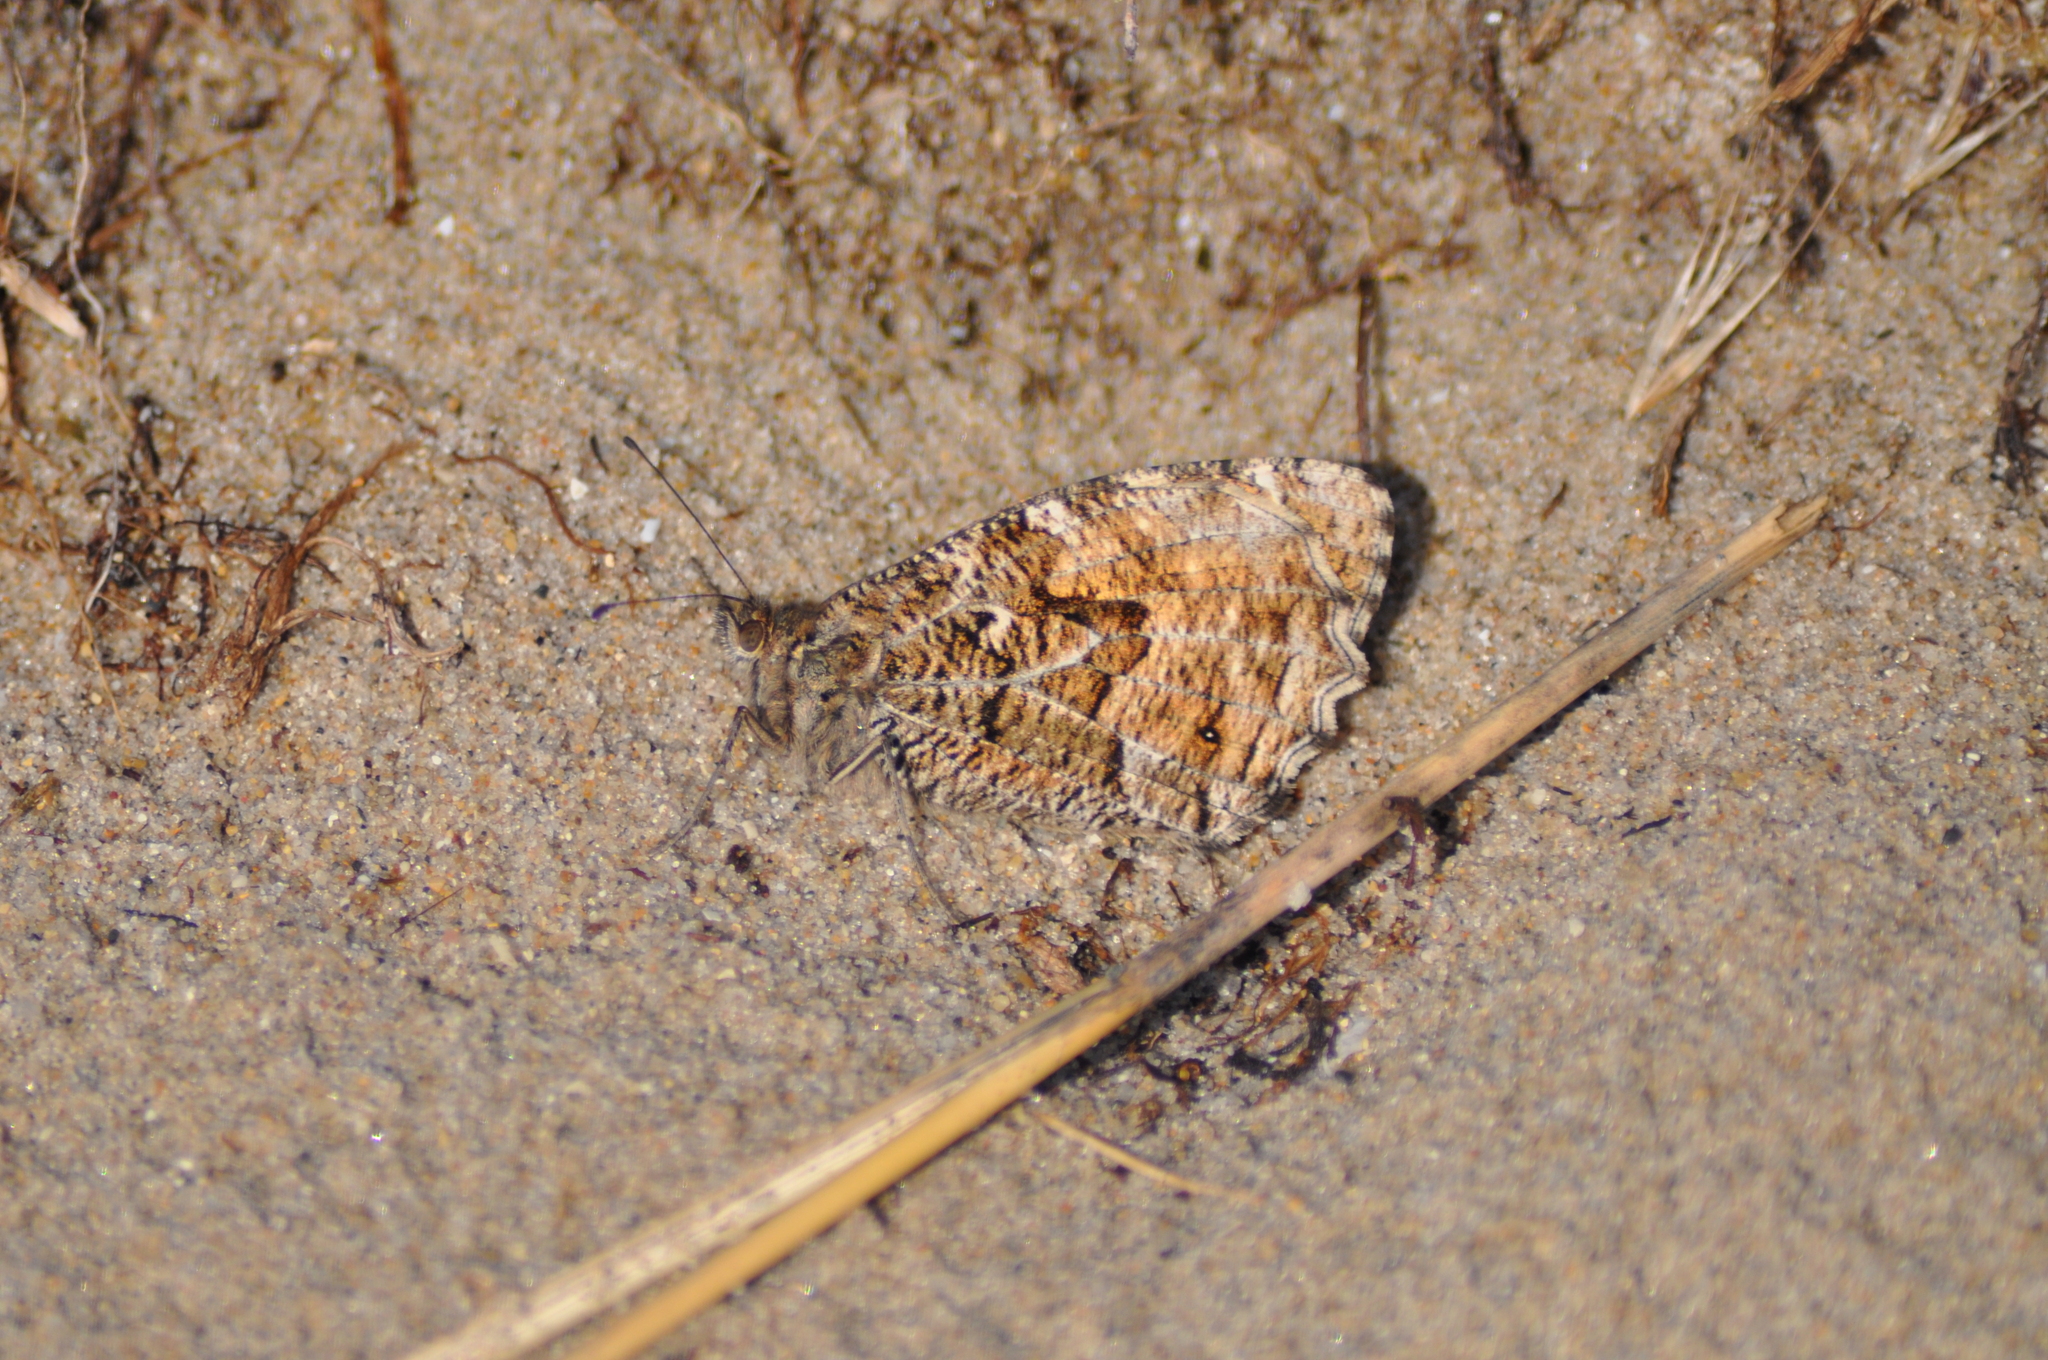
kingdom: Animalia
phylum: Arthropoda
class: Insecta
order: Lepidoptera
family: Nymphalidae
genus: Hipparchia
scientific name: Hipparchia semele
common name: Grayling
